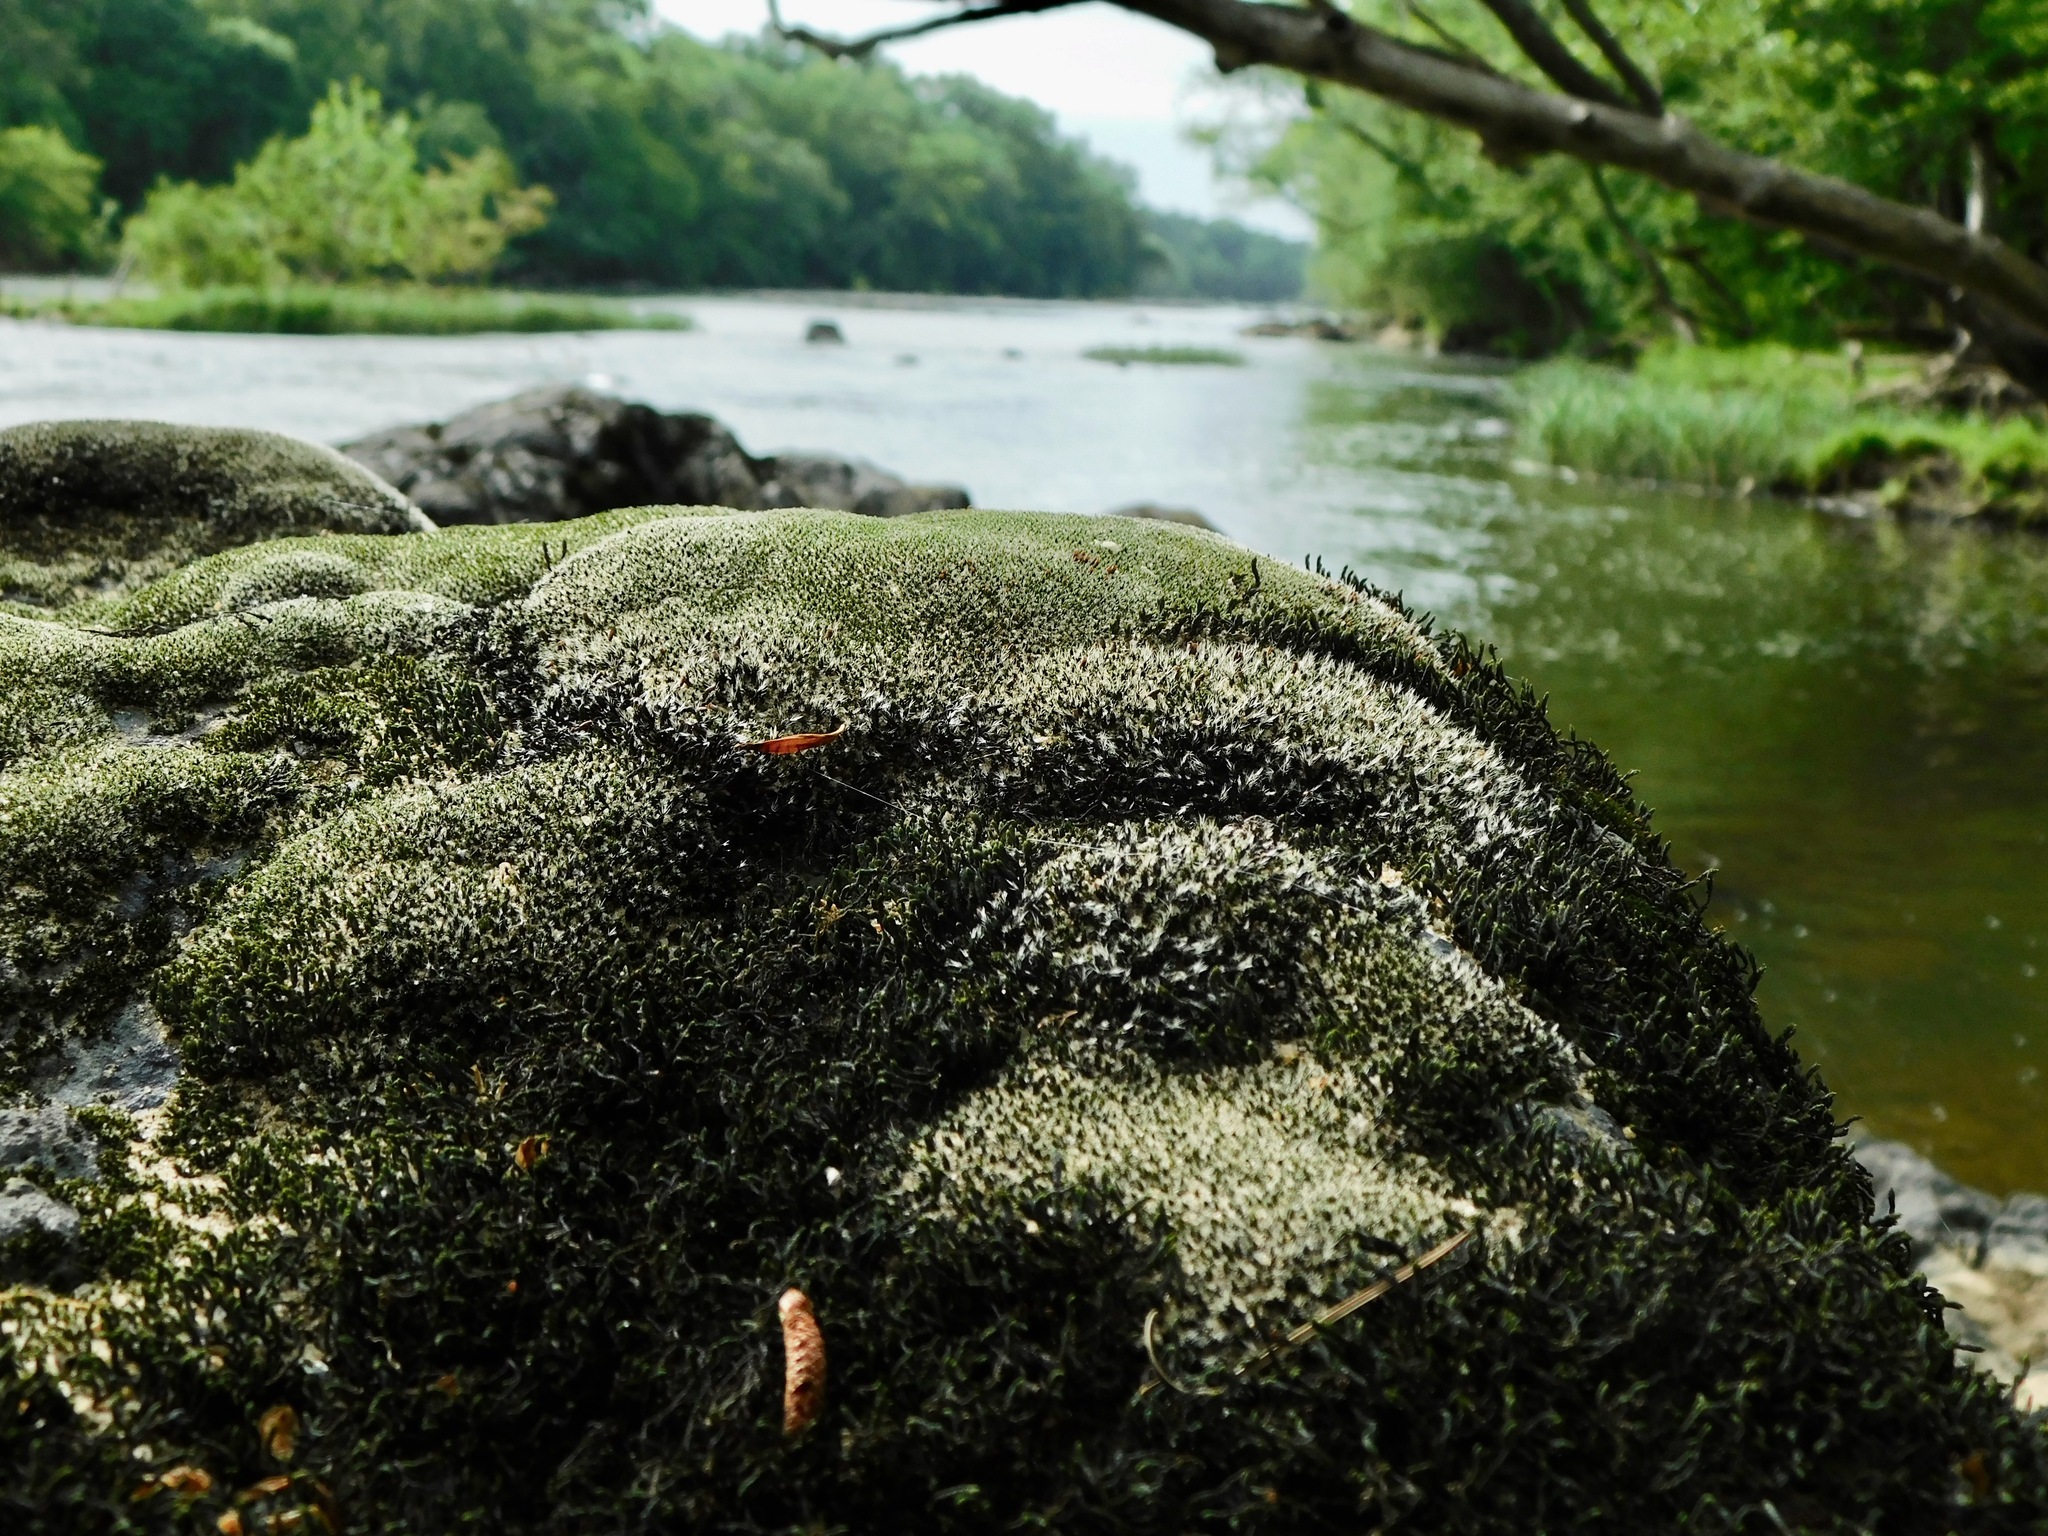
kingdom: Plantae
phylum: Bryophyta
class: Bryopsida
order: Grimmiales
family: Grimmiaceae
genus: Grimmia
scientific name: Grimmia laevigata
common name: Hoary grimmia
